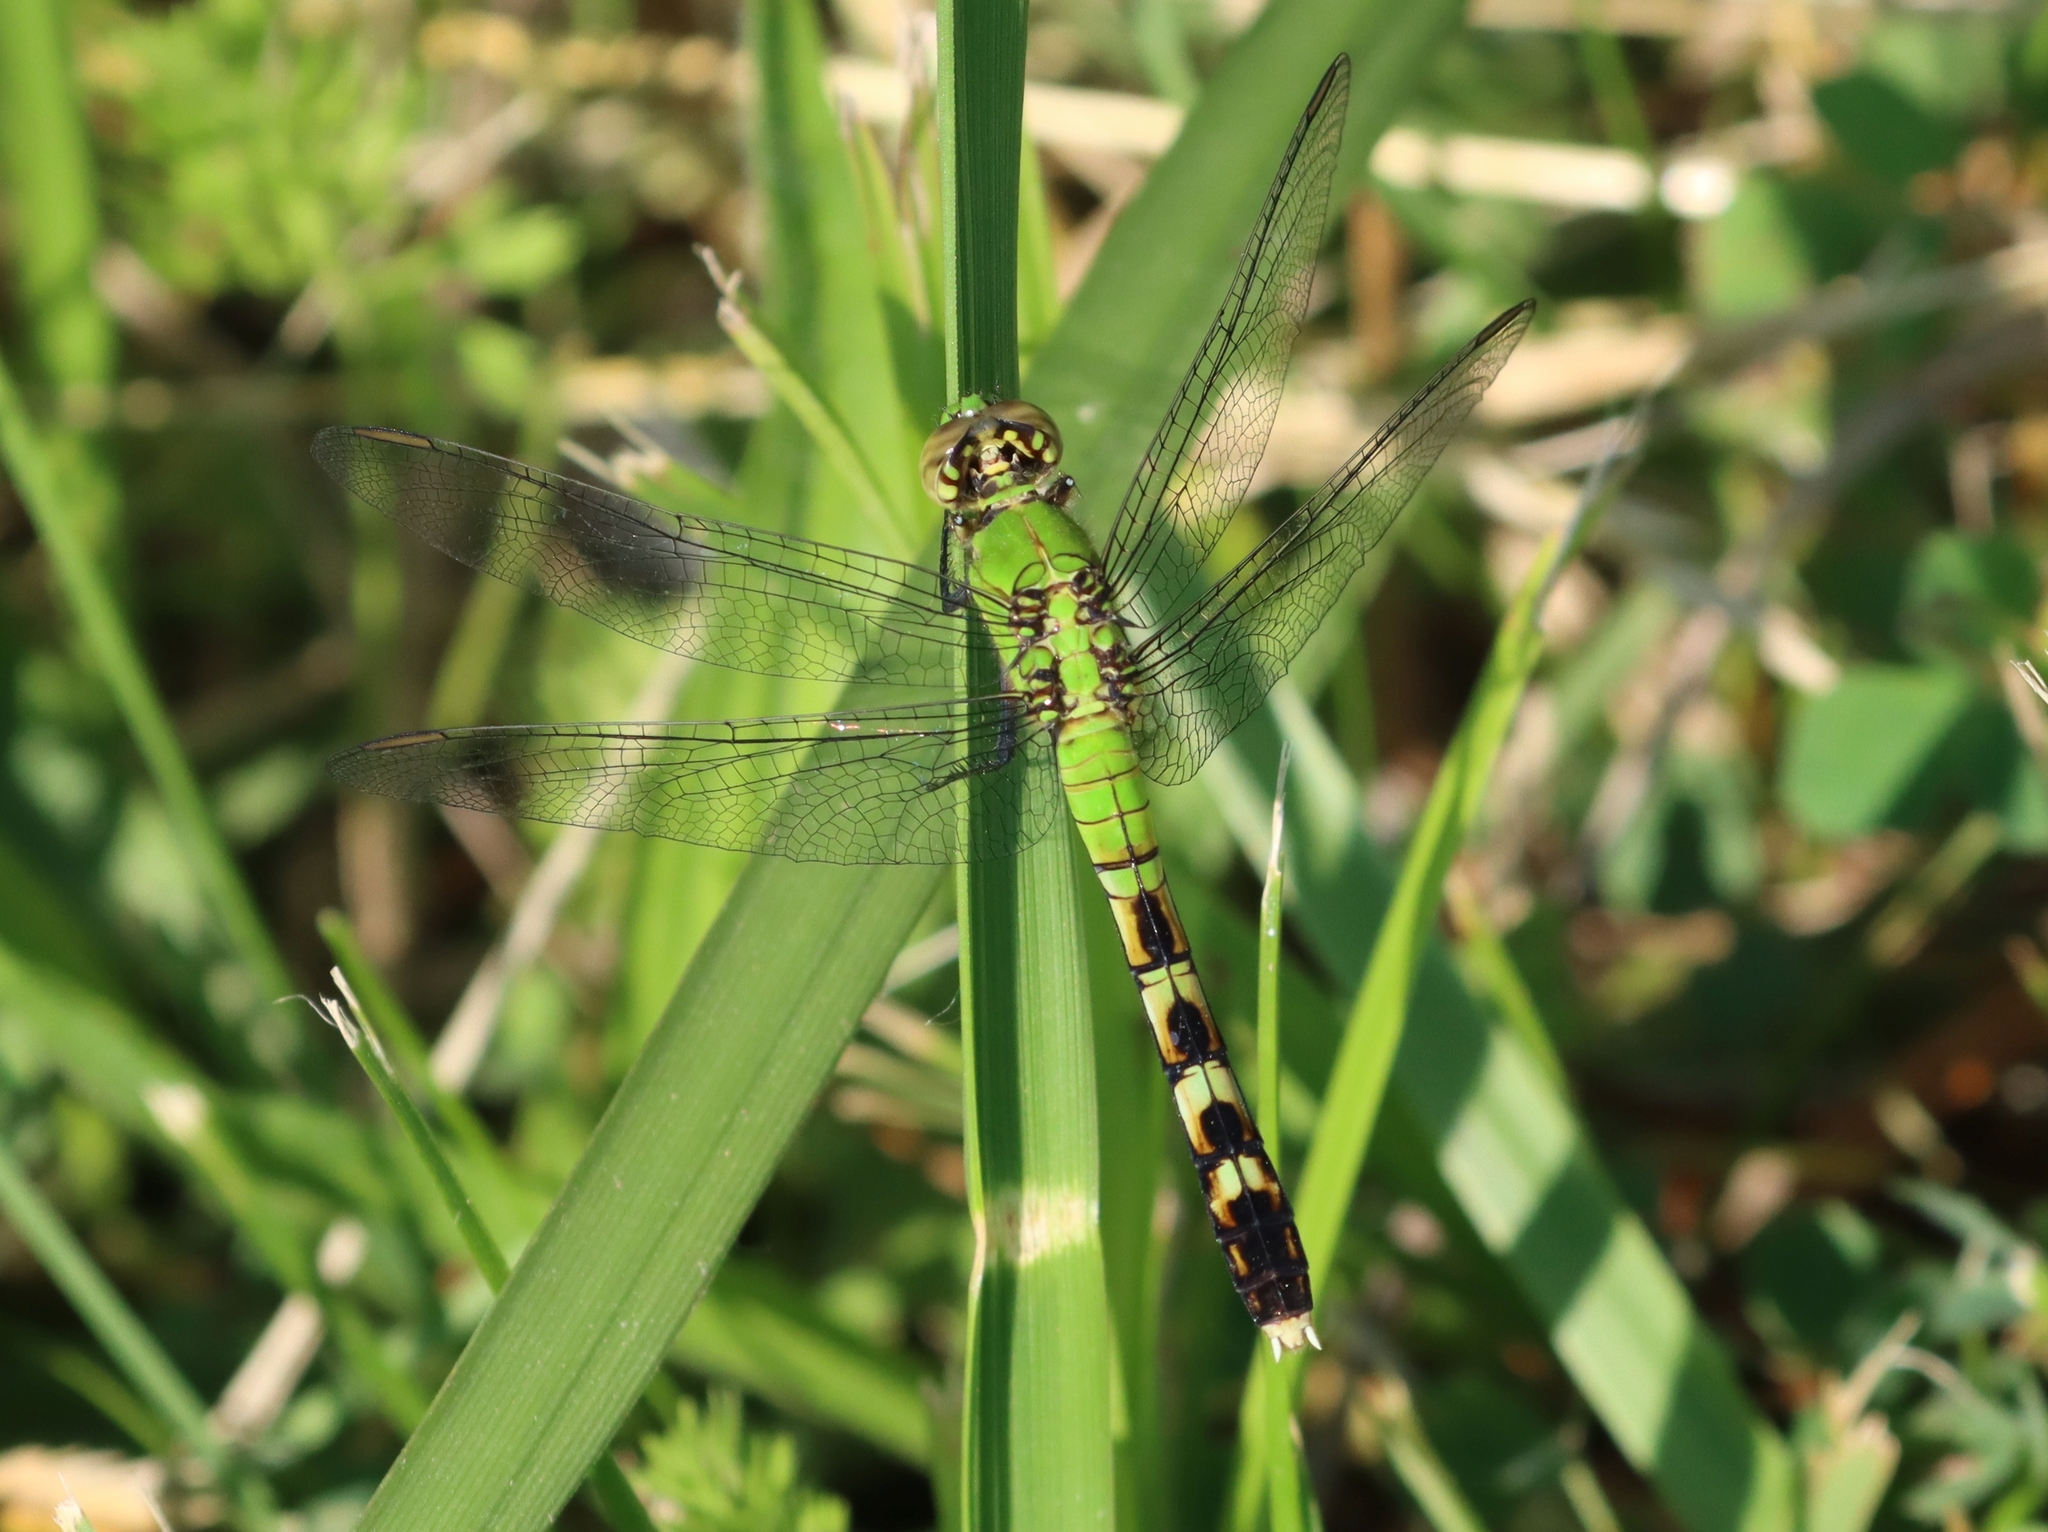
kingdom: Animalia
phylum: Arthropoda
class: Insecta
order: Odonata
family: Libellulidae
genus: Erythemis
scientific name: Erythemis simplicicollis
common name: Eastern pondhawk
